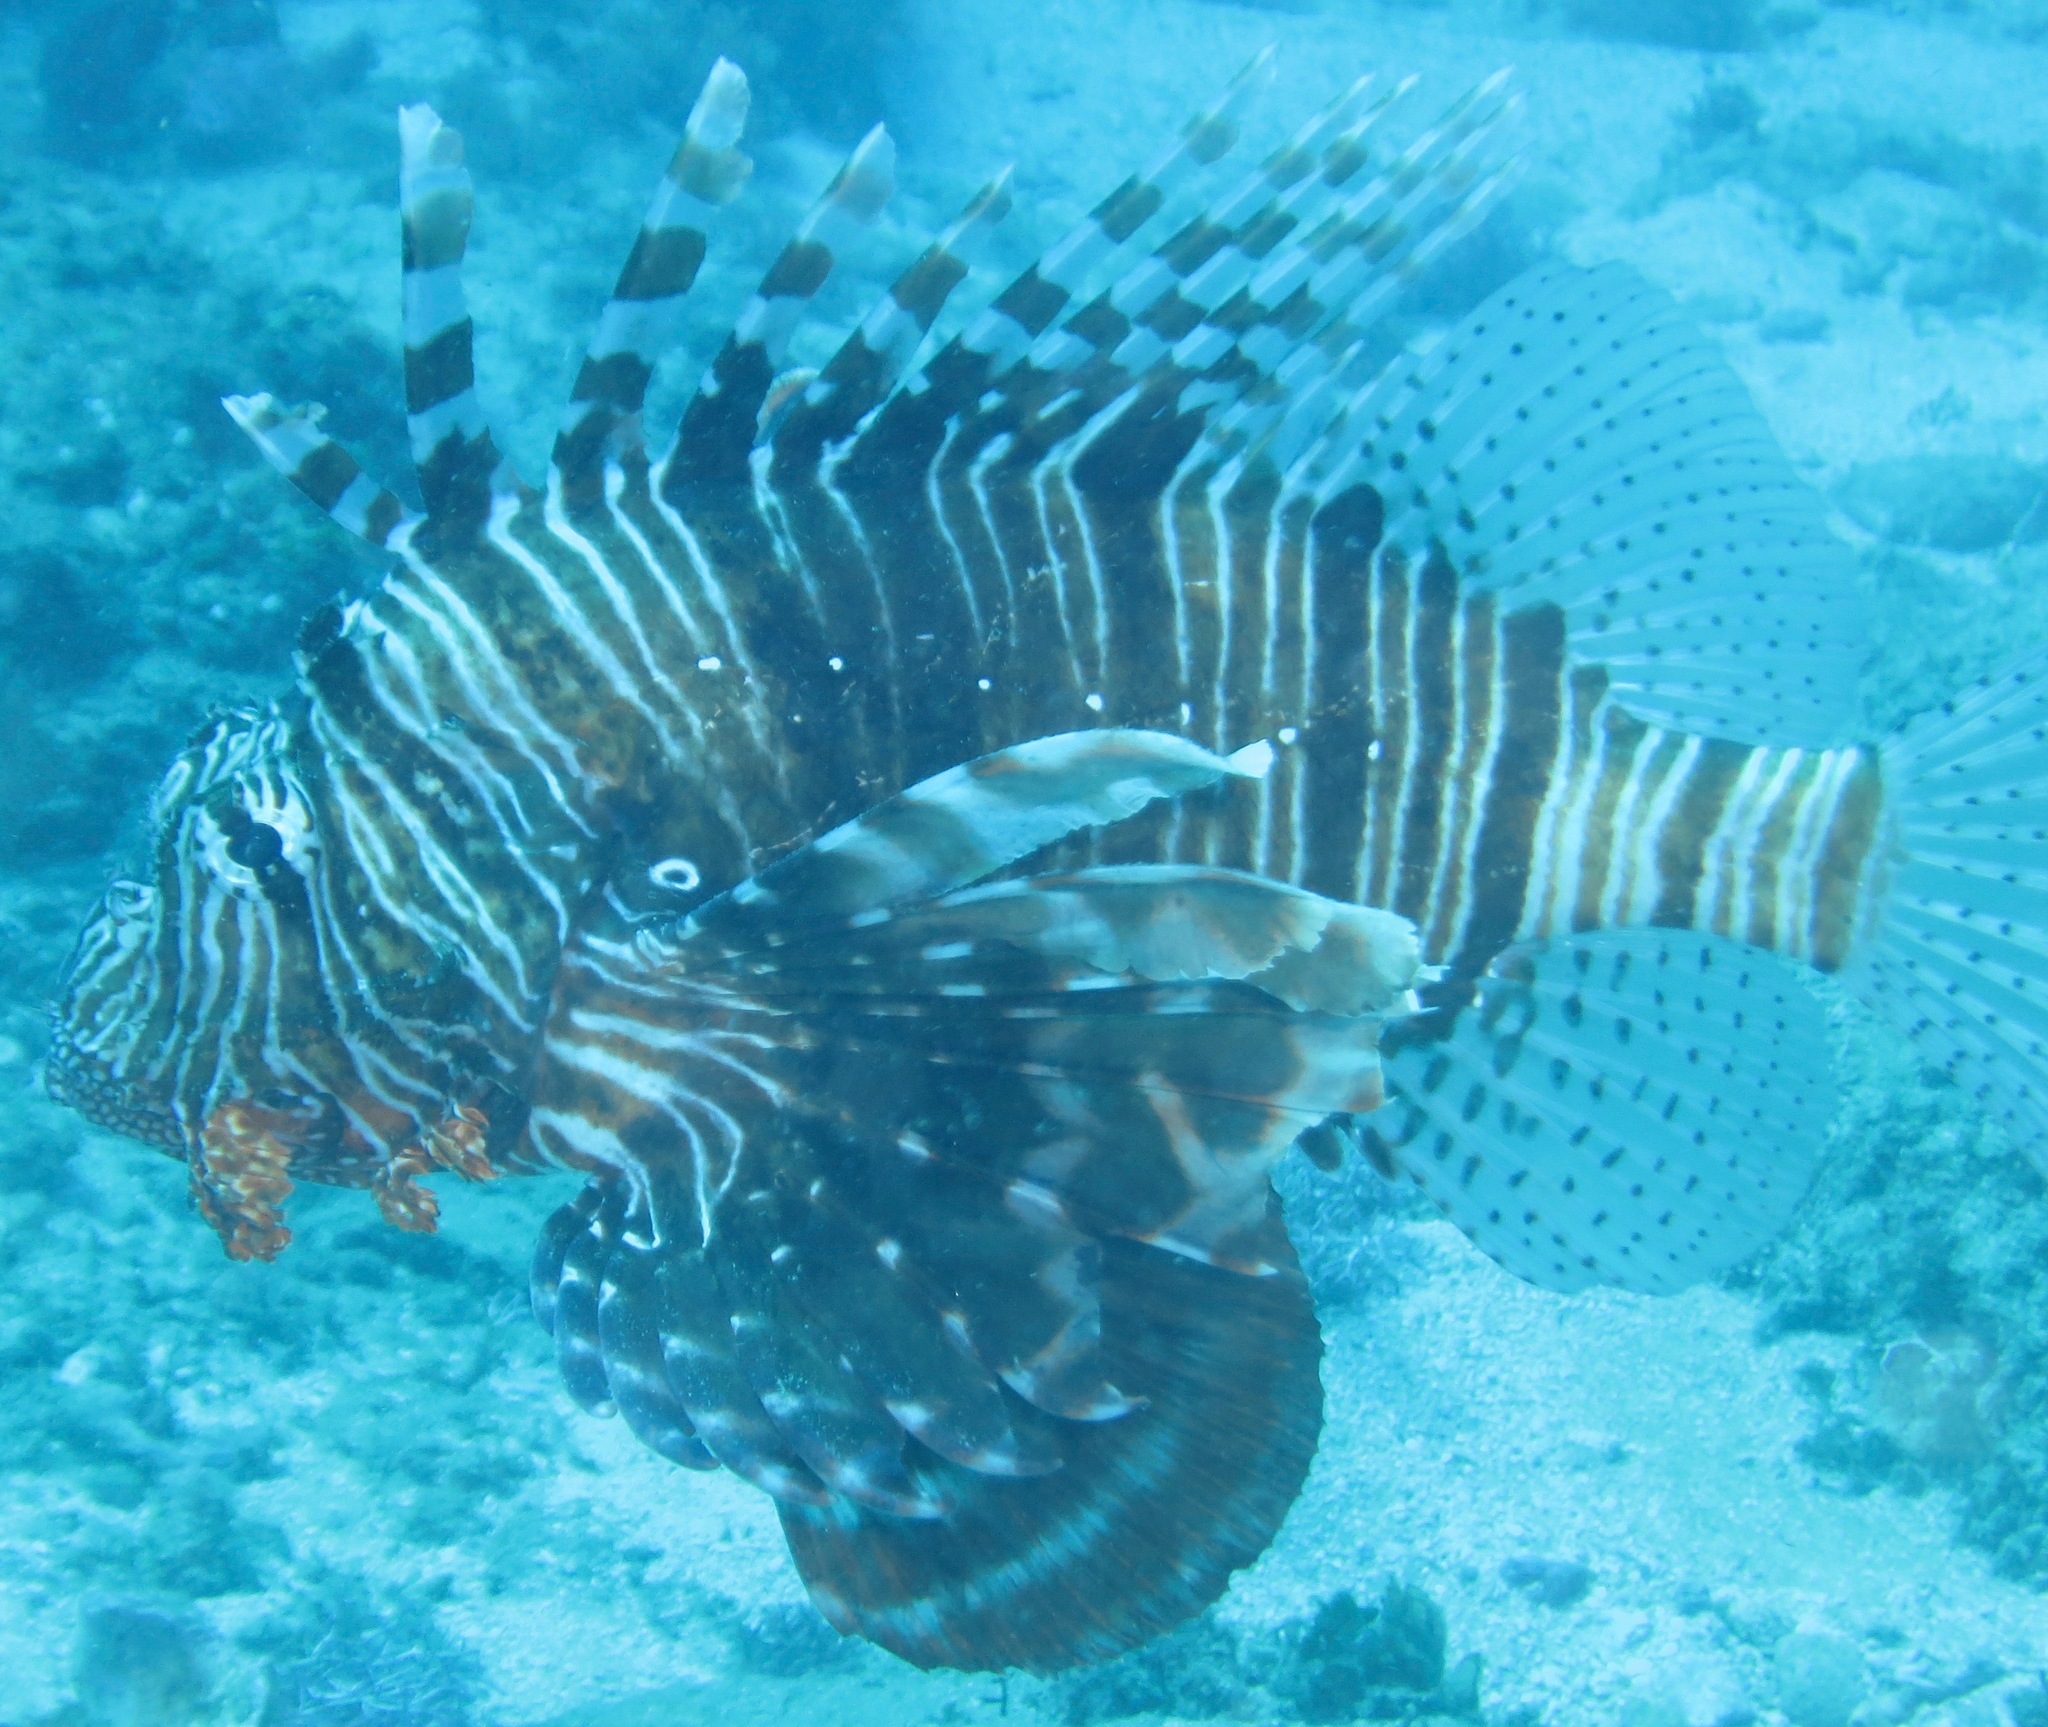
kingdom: Animalia
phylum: Chordata
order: Scorpaeniformes
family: Scorpaenidae
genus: Pterois
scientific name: Pterois miles
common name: Devil firefish
